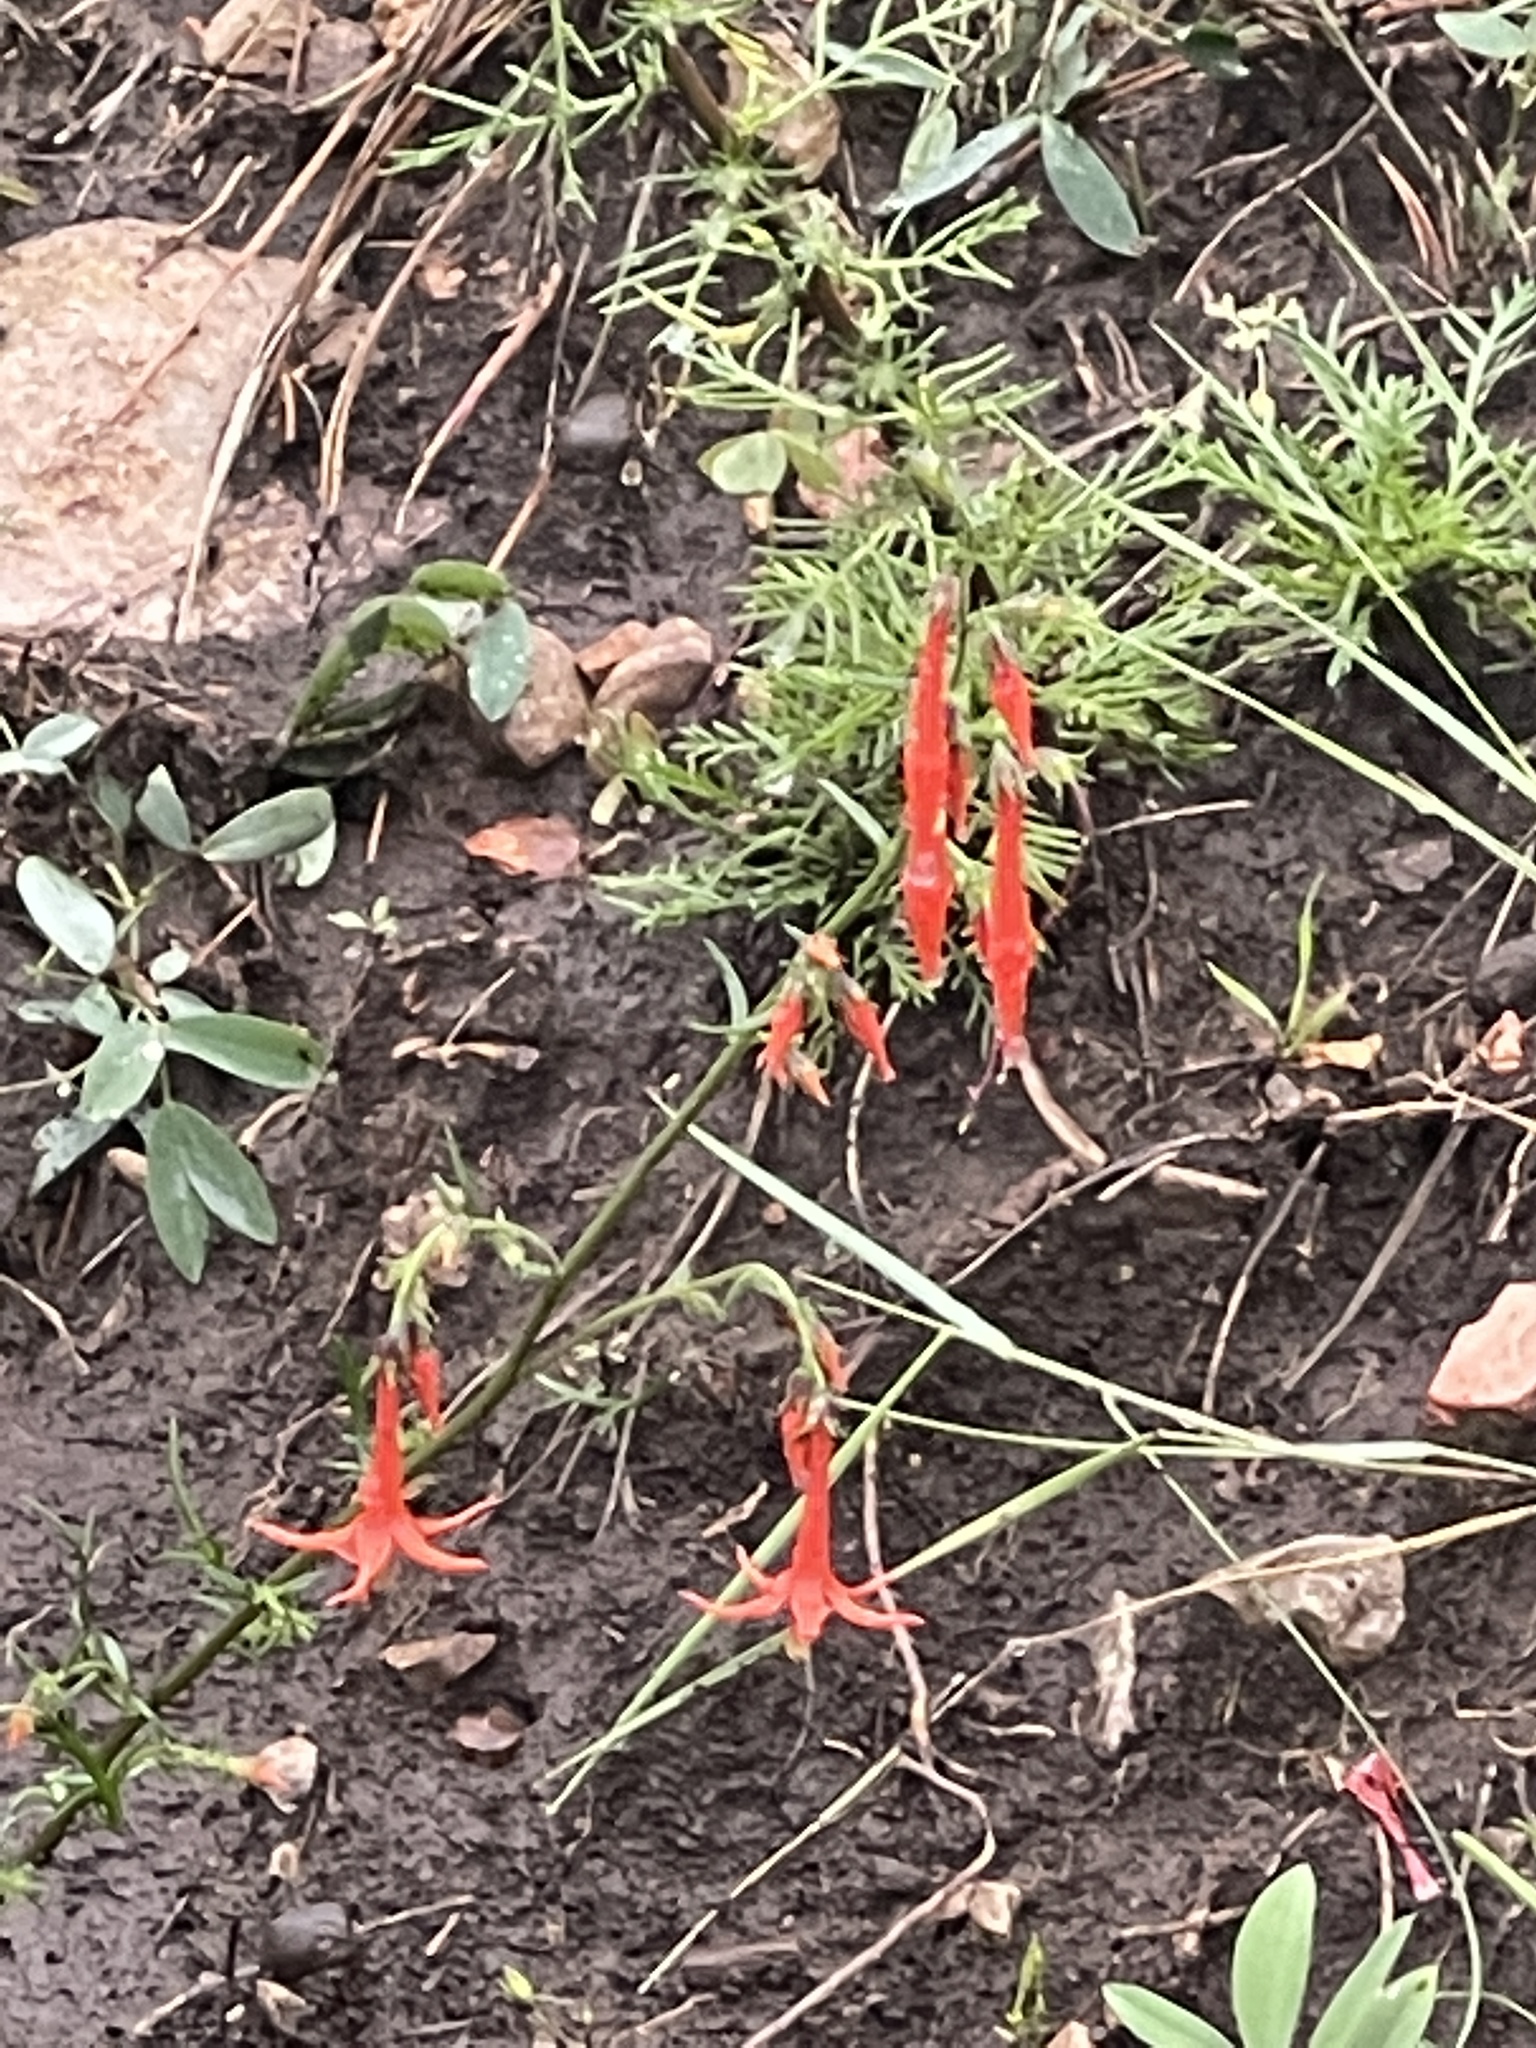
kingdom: Plantae
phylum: Tracheophyta
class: Magnoliopsida
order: Ericales
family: Polemoniaceae
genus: Ipomopsis
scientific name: Ipomopsis aggregata
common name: Scarlet gilia
